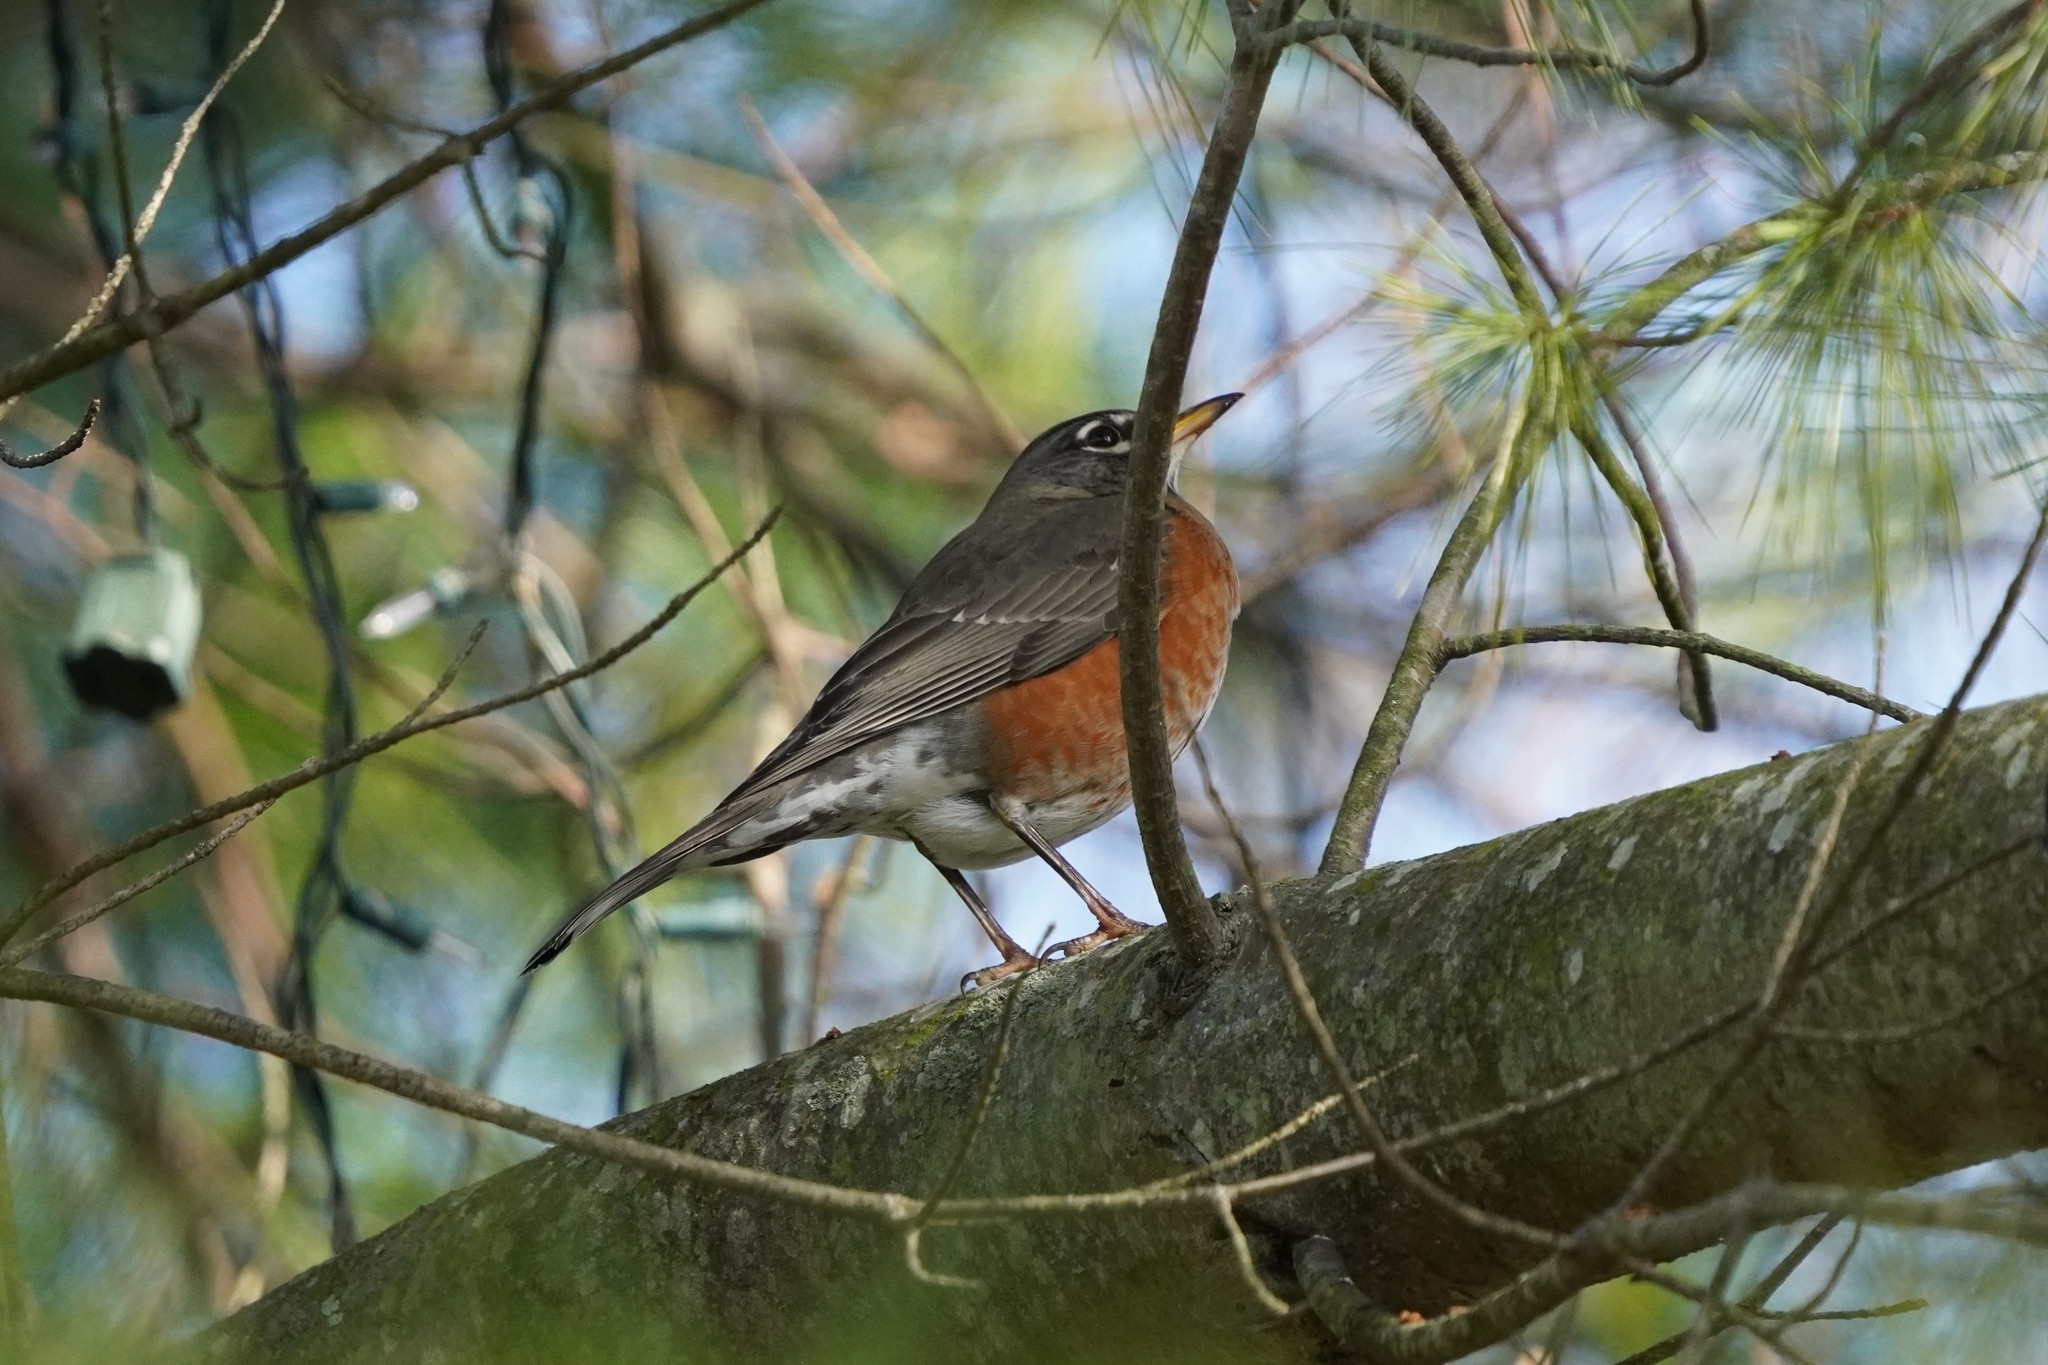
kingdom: Animalia
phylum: Chordata
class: Aves
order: Passeriformes
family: Turdidae
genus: Turdus
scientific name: Turdus migratorius
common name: American robin
